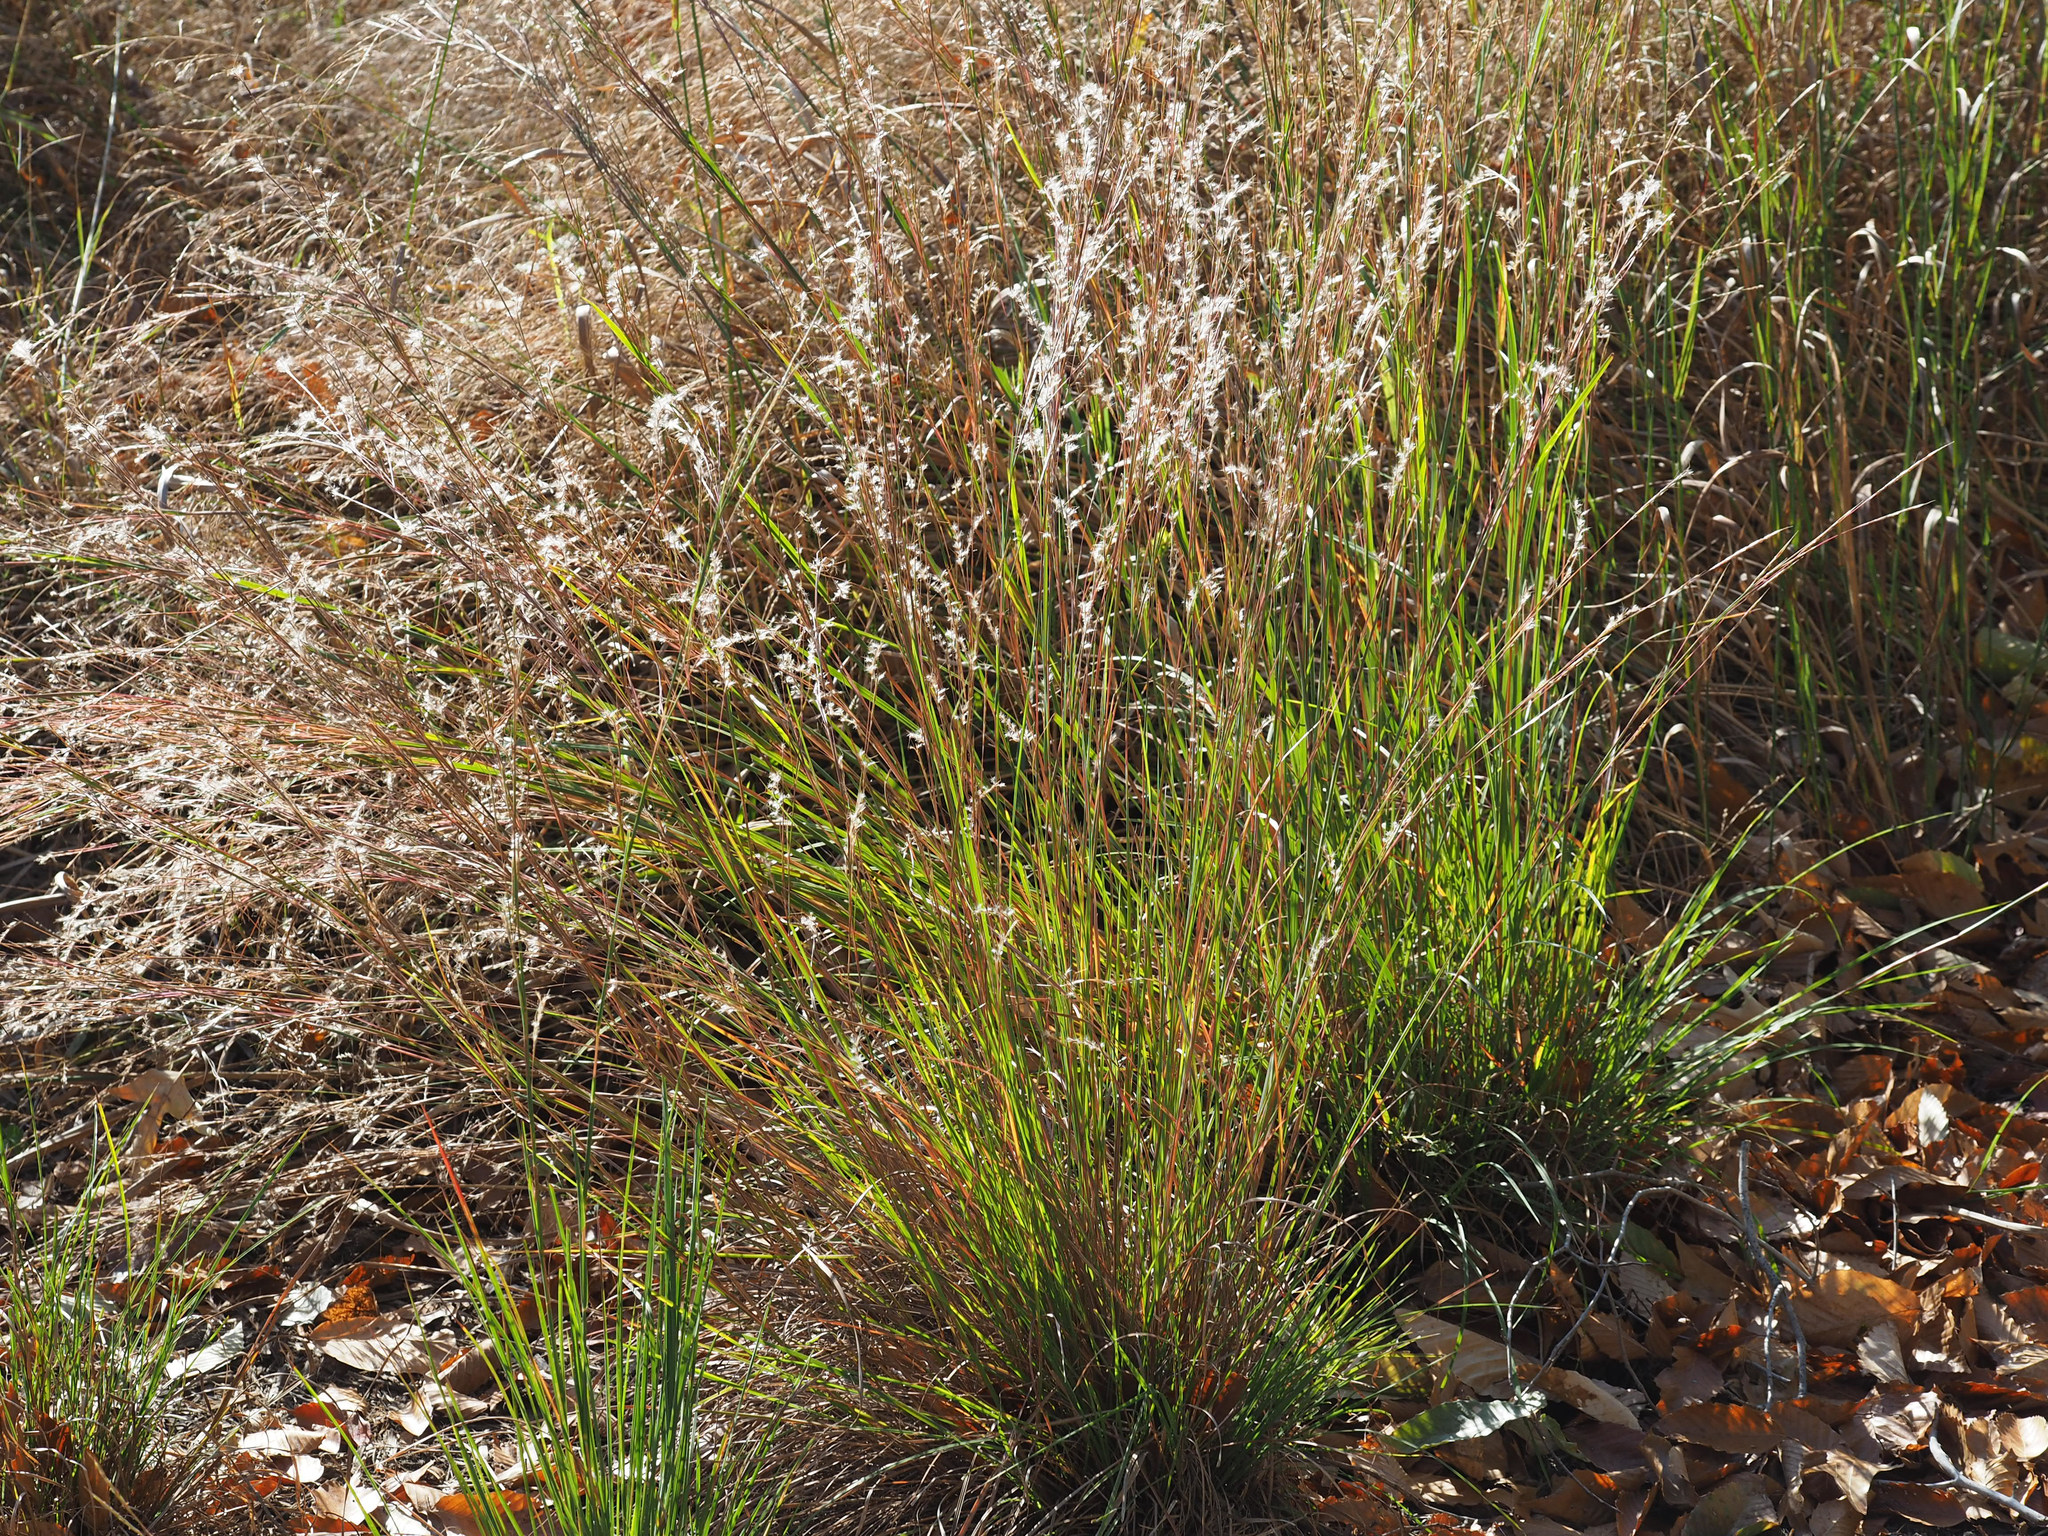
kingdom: Plantae
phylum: Tracheophyta
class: Liliopsida
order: Poales
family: Poaceae
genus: Schizachyrium
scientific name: Schizachyrium scoparium
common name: Little bluestem
